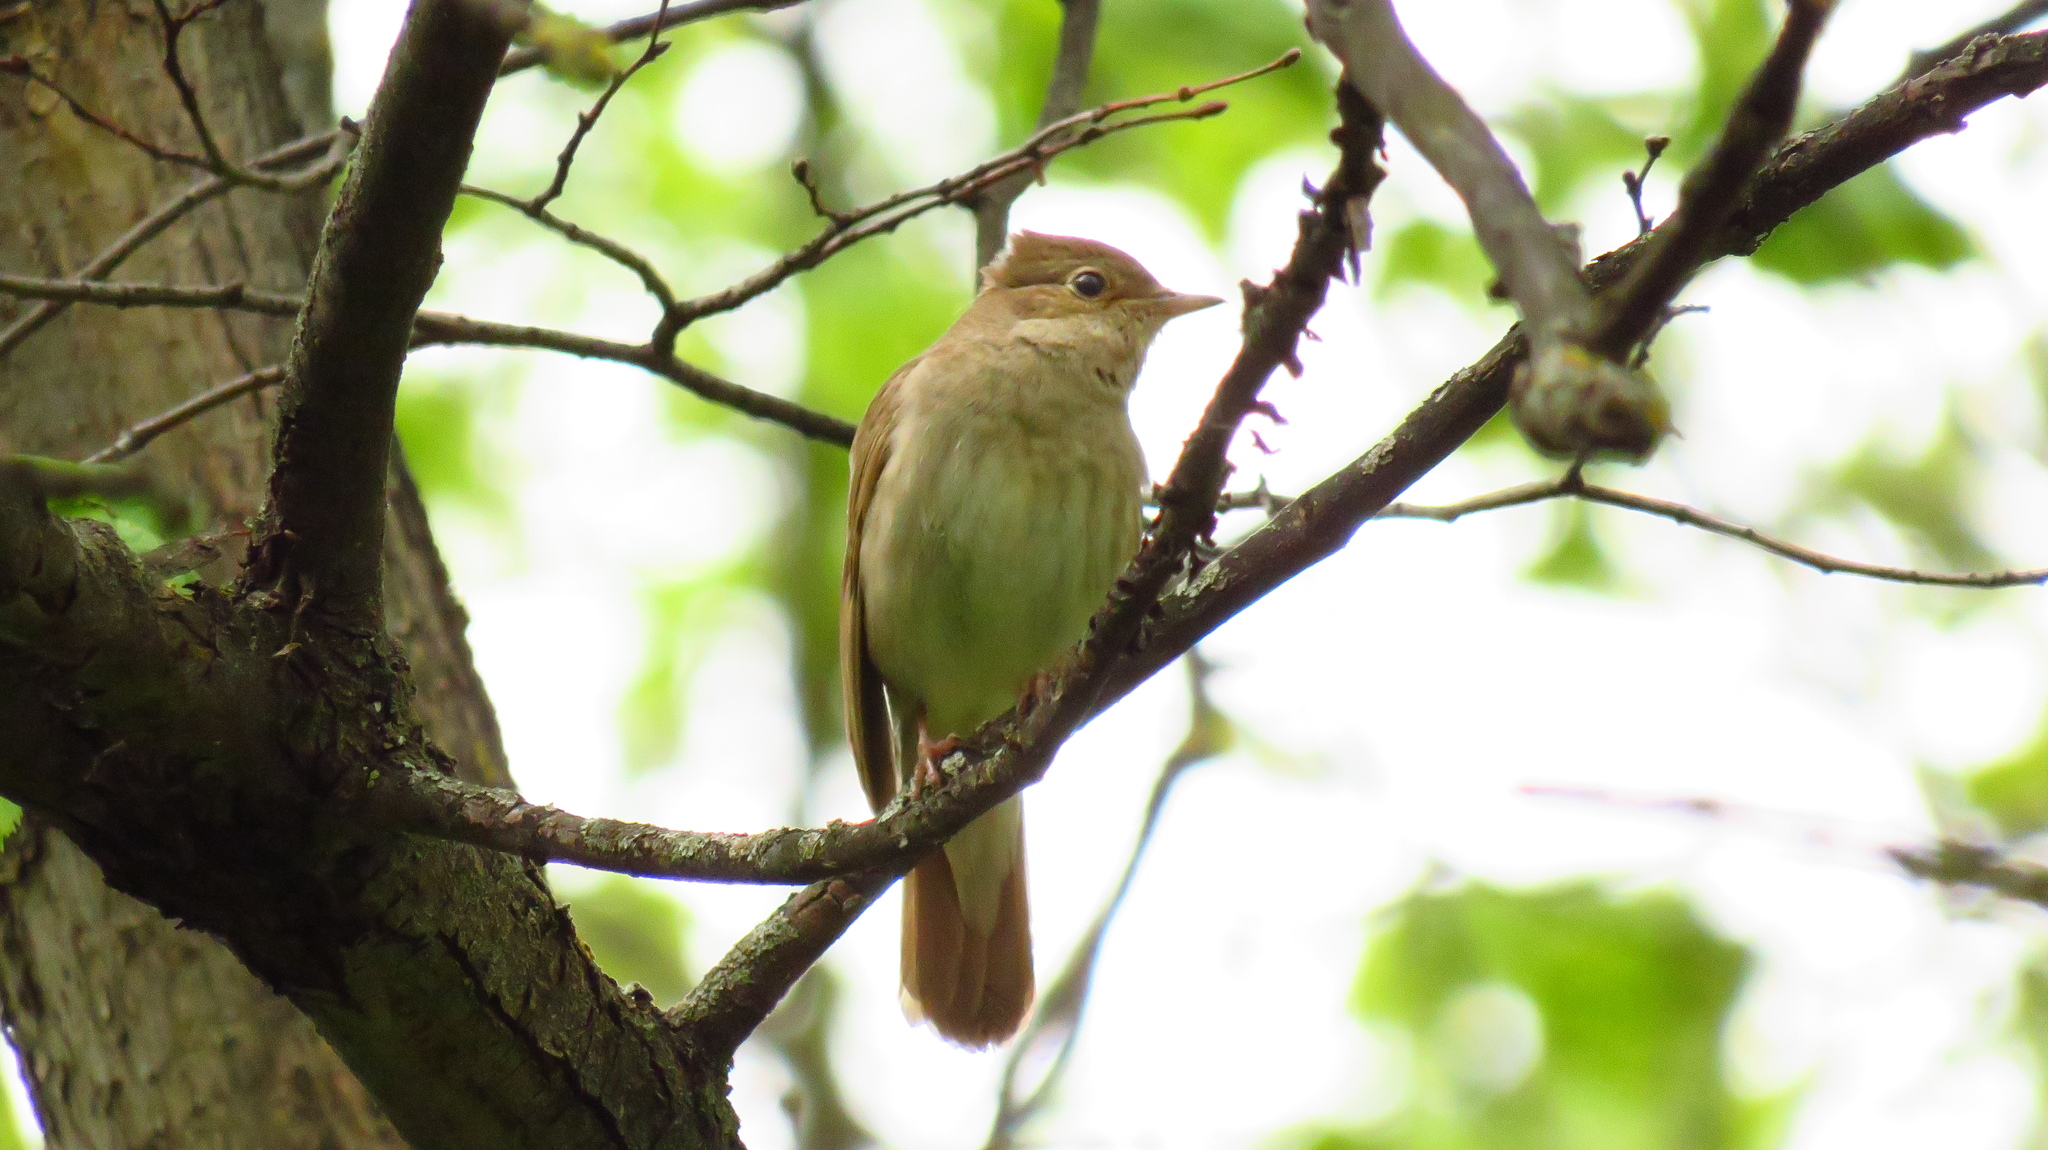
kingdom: Animalia
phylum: Chordata
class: Aves
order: Passeriformes
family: Muscicapidae
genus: Luscinia
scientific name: Luscinia luscinia
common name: Thrush nightingale
